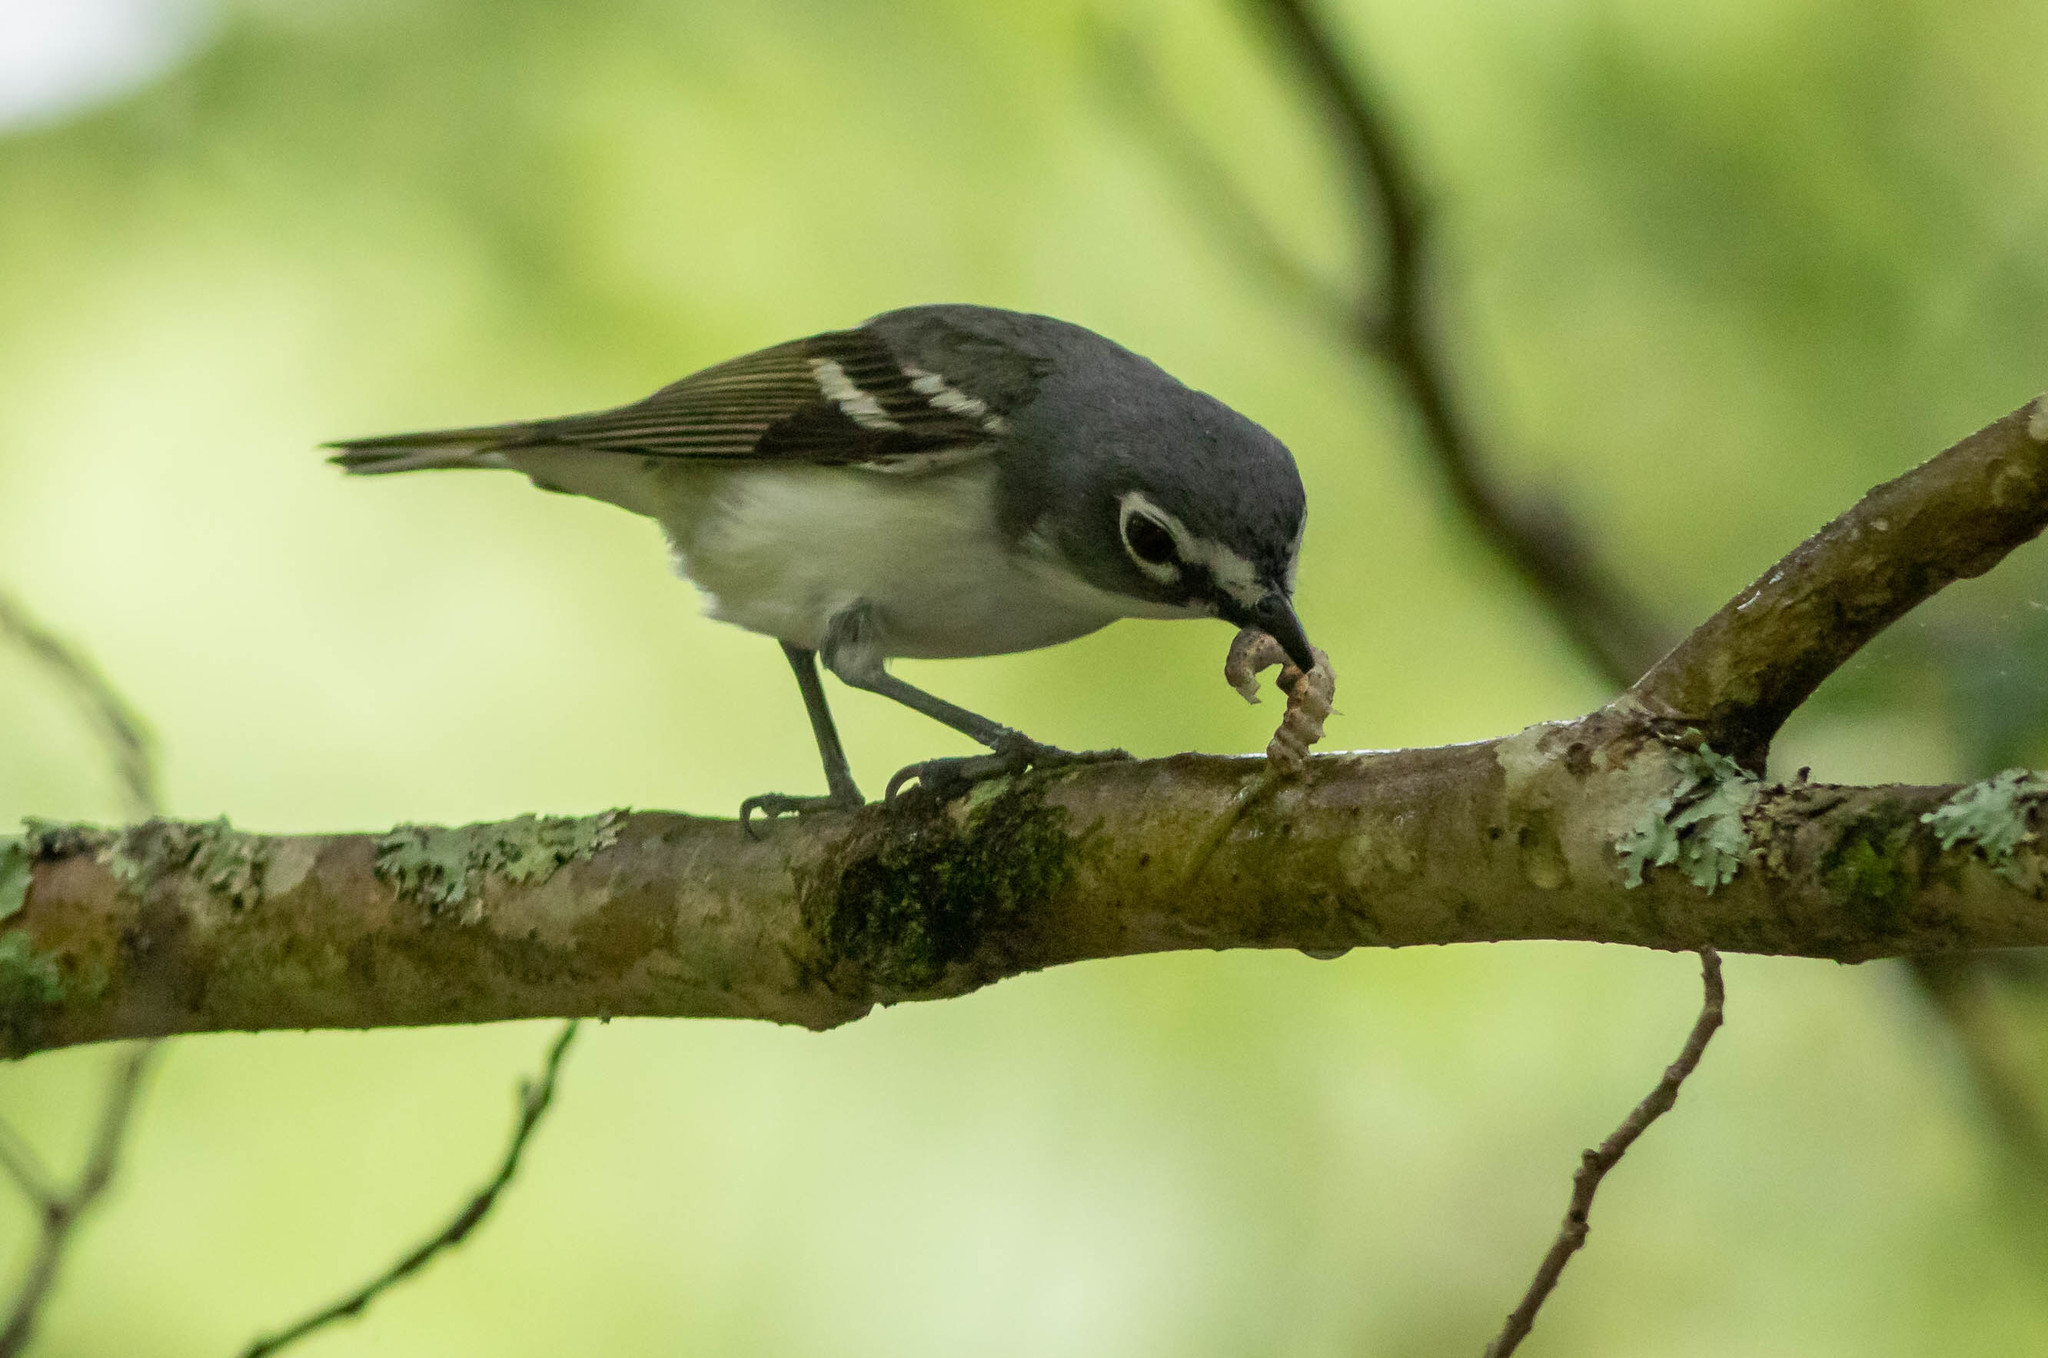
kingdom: Animalia
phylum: Chordata
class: Aves
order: Passeriformes
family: Vireonidae
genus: Vireo
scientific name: Vireo solitarius
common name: Blue-headed vireo
